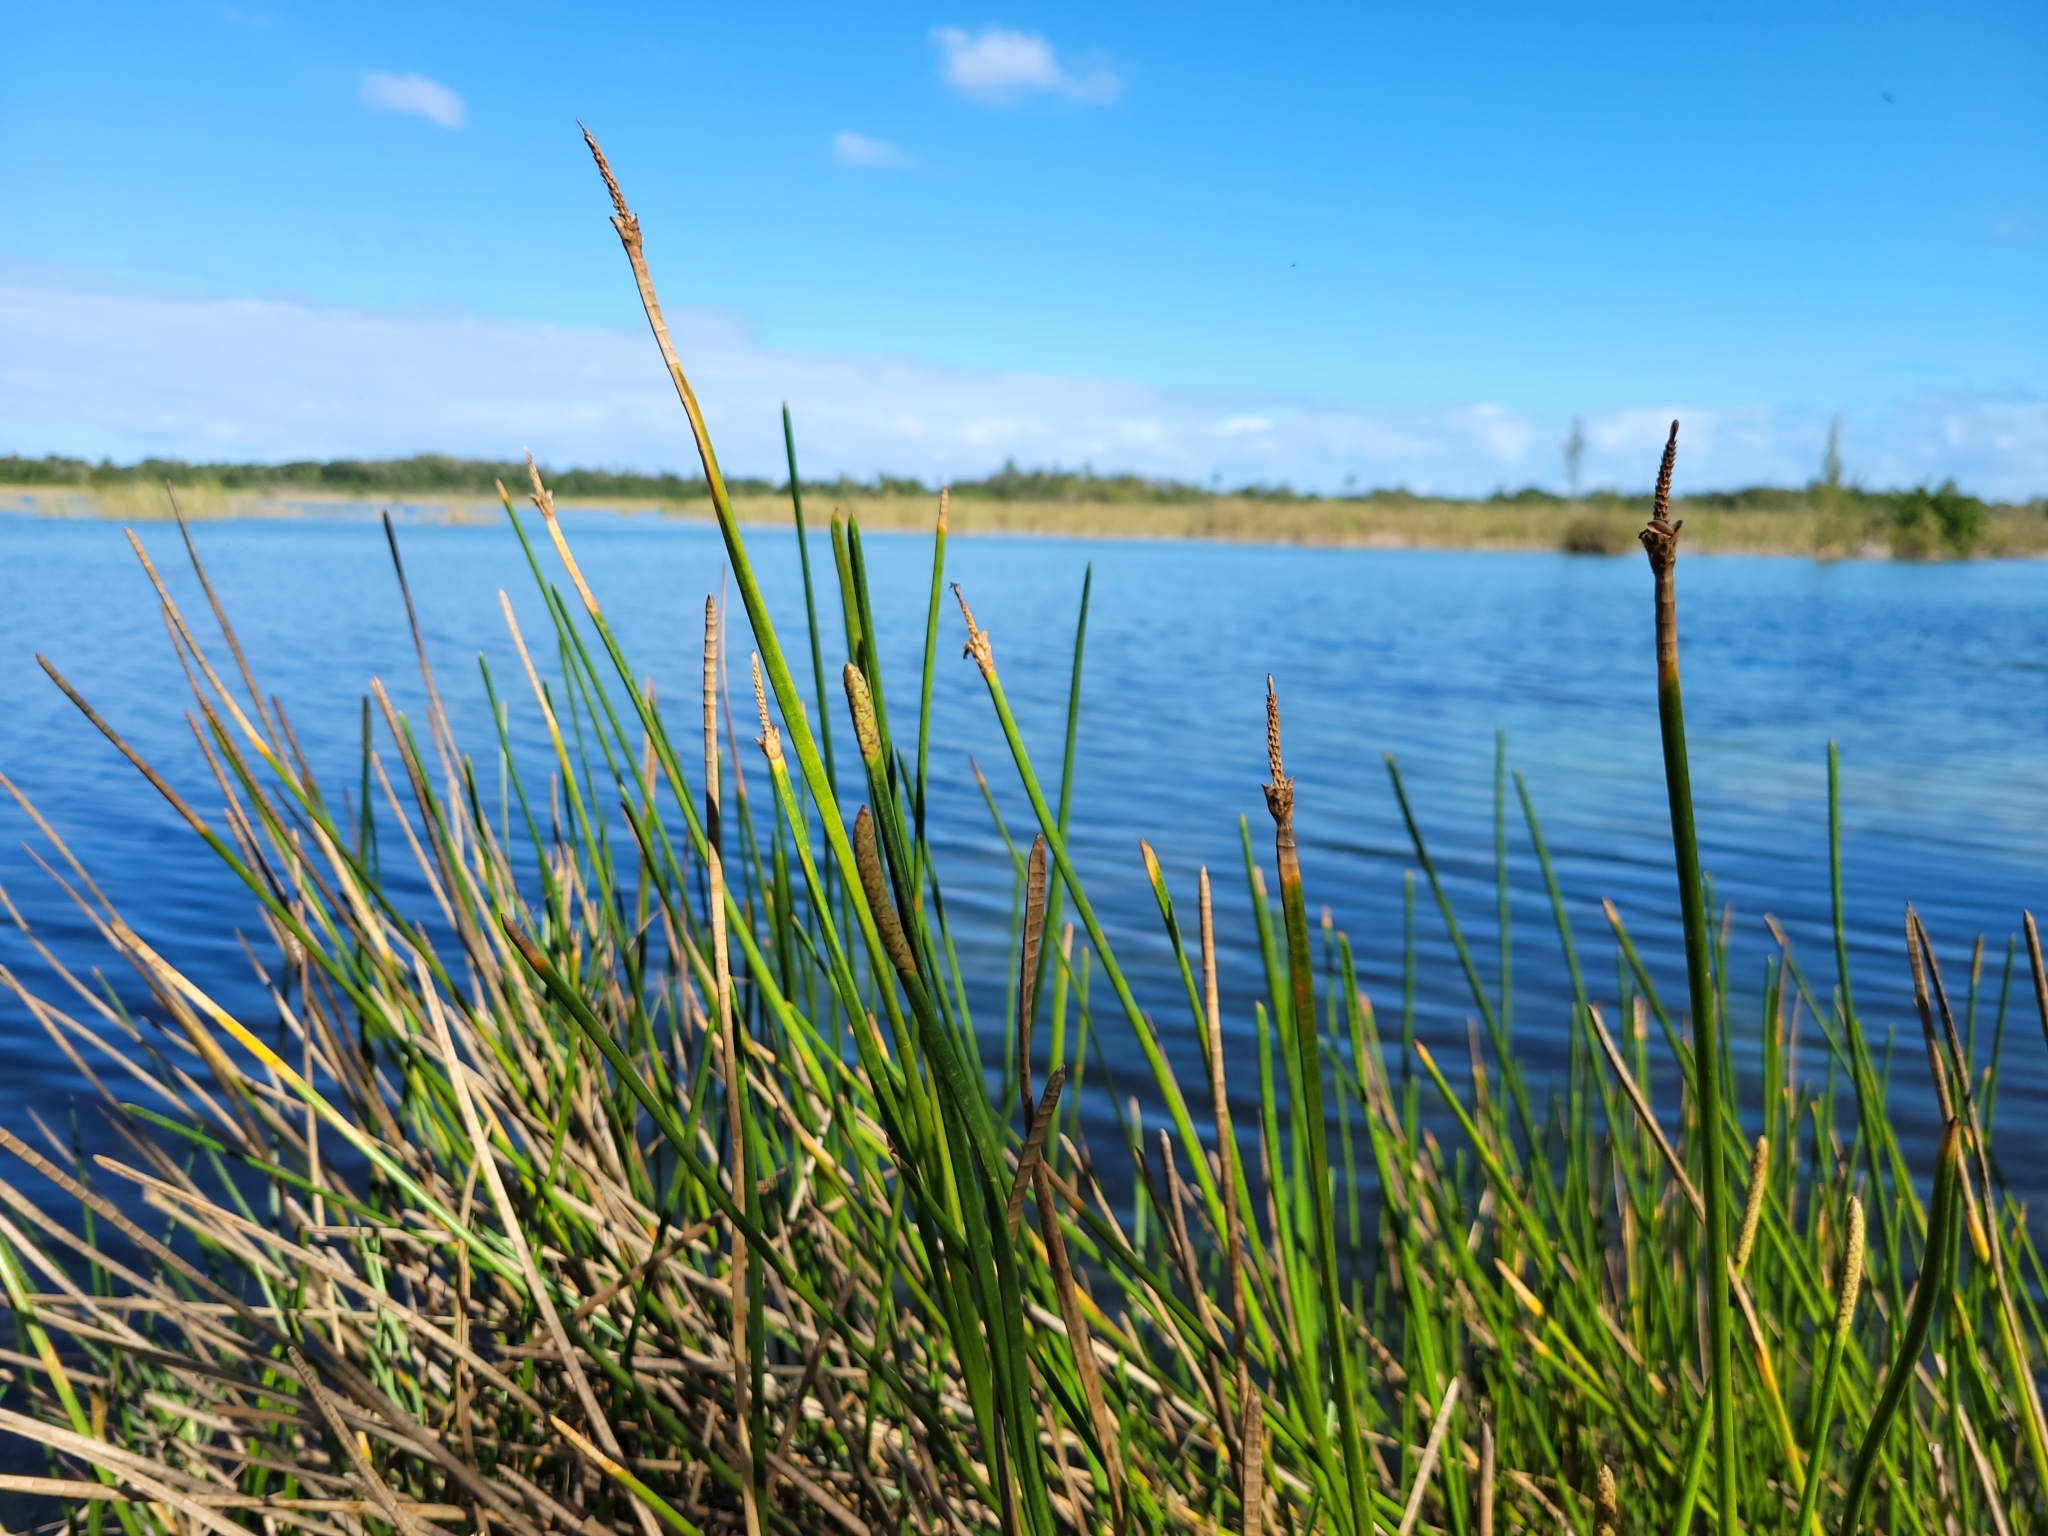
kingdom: Plantae
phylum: Tracheophyta
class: Liliopsida
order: Poales
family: Cyperaceae
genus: Eleocharis
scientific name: Eleocharis interstincta
